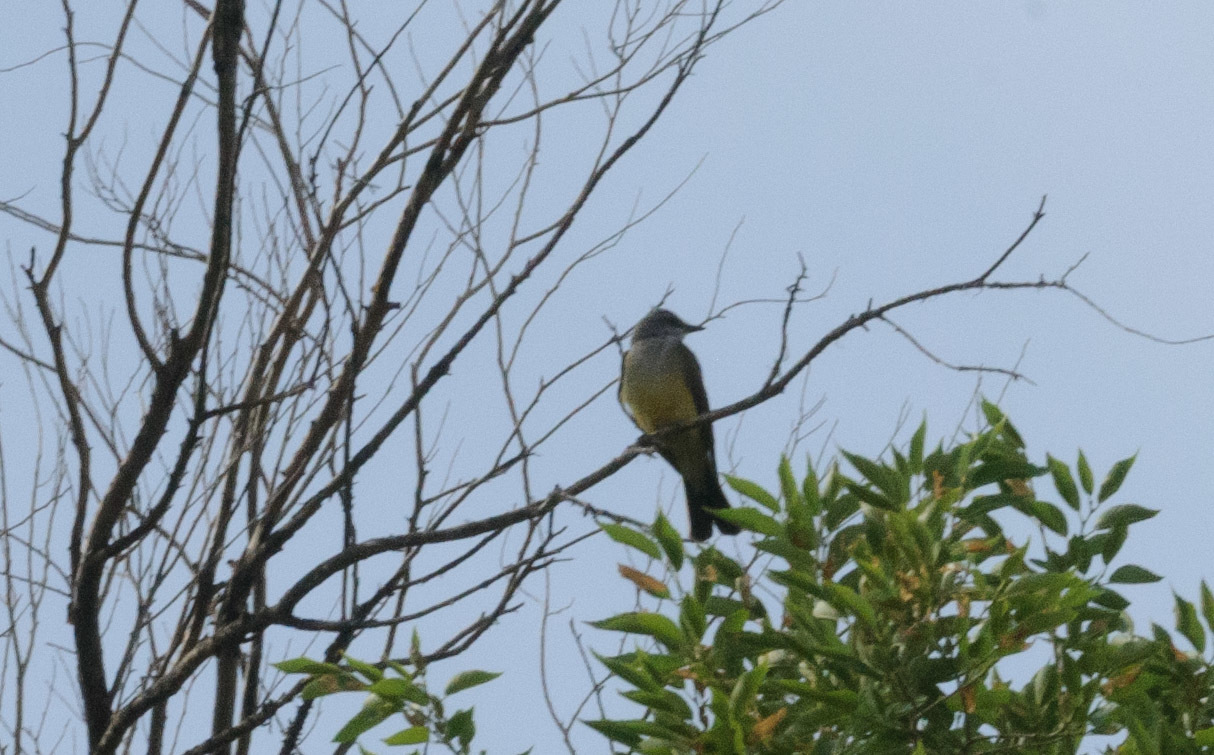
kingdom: Animalia
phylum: Chordata
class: Aves
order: Passeriformes
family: Tyrannidae
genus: Tyrannus
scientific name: Tyrannus verticalis
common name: Western kingbird
